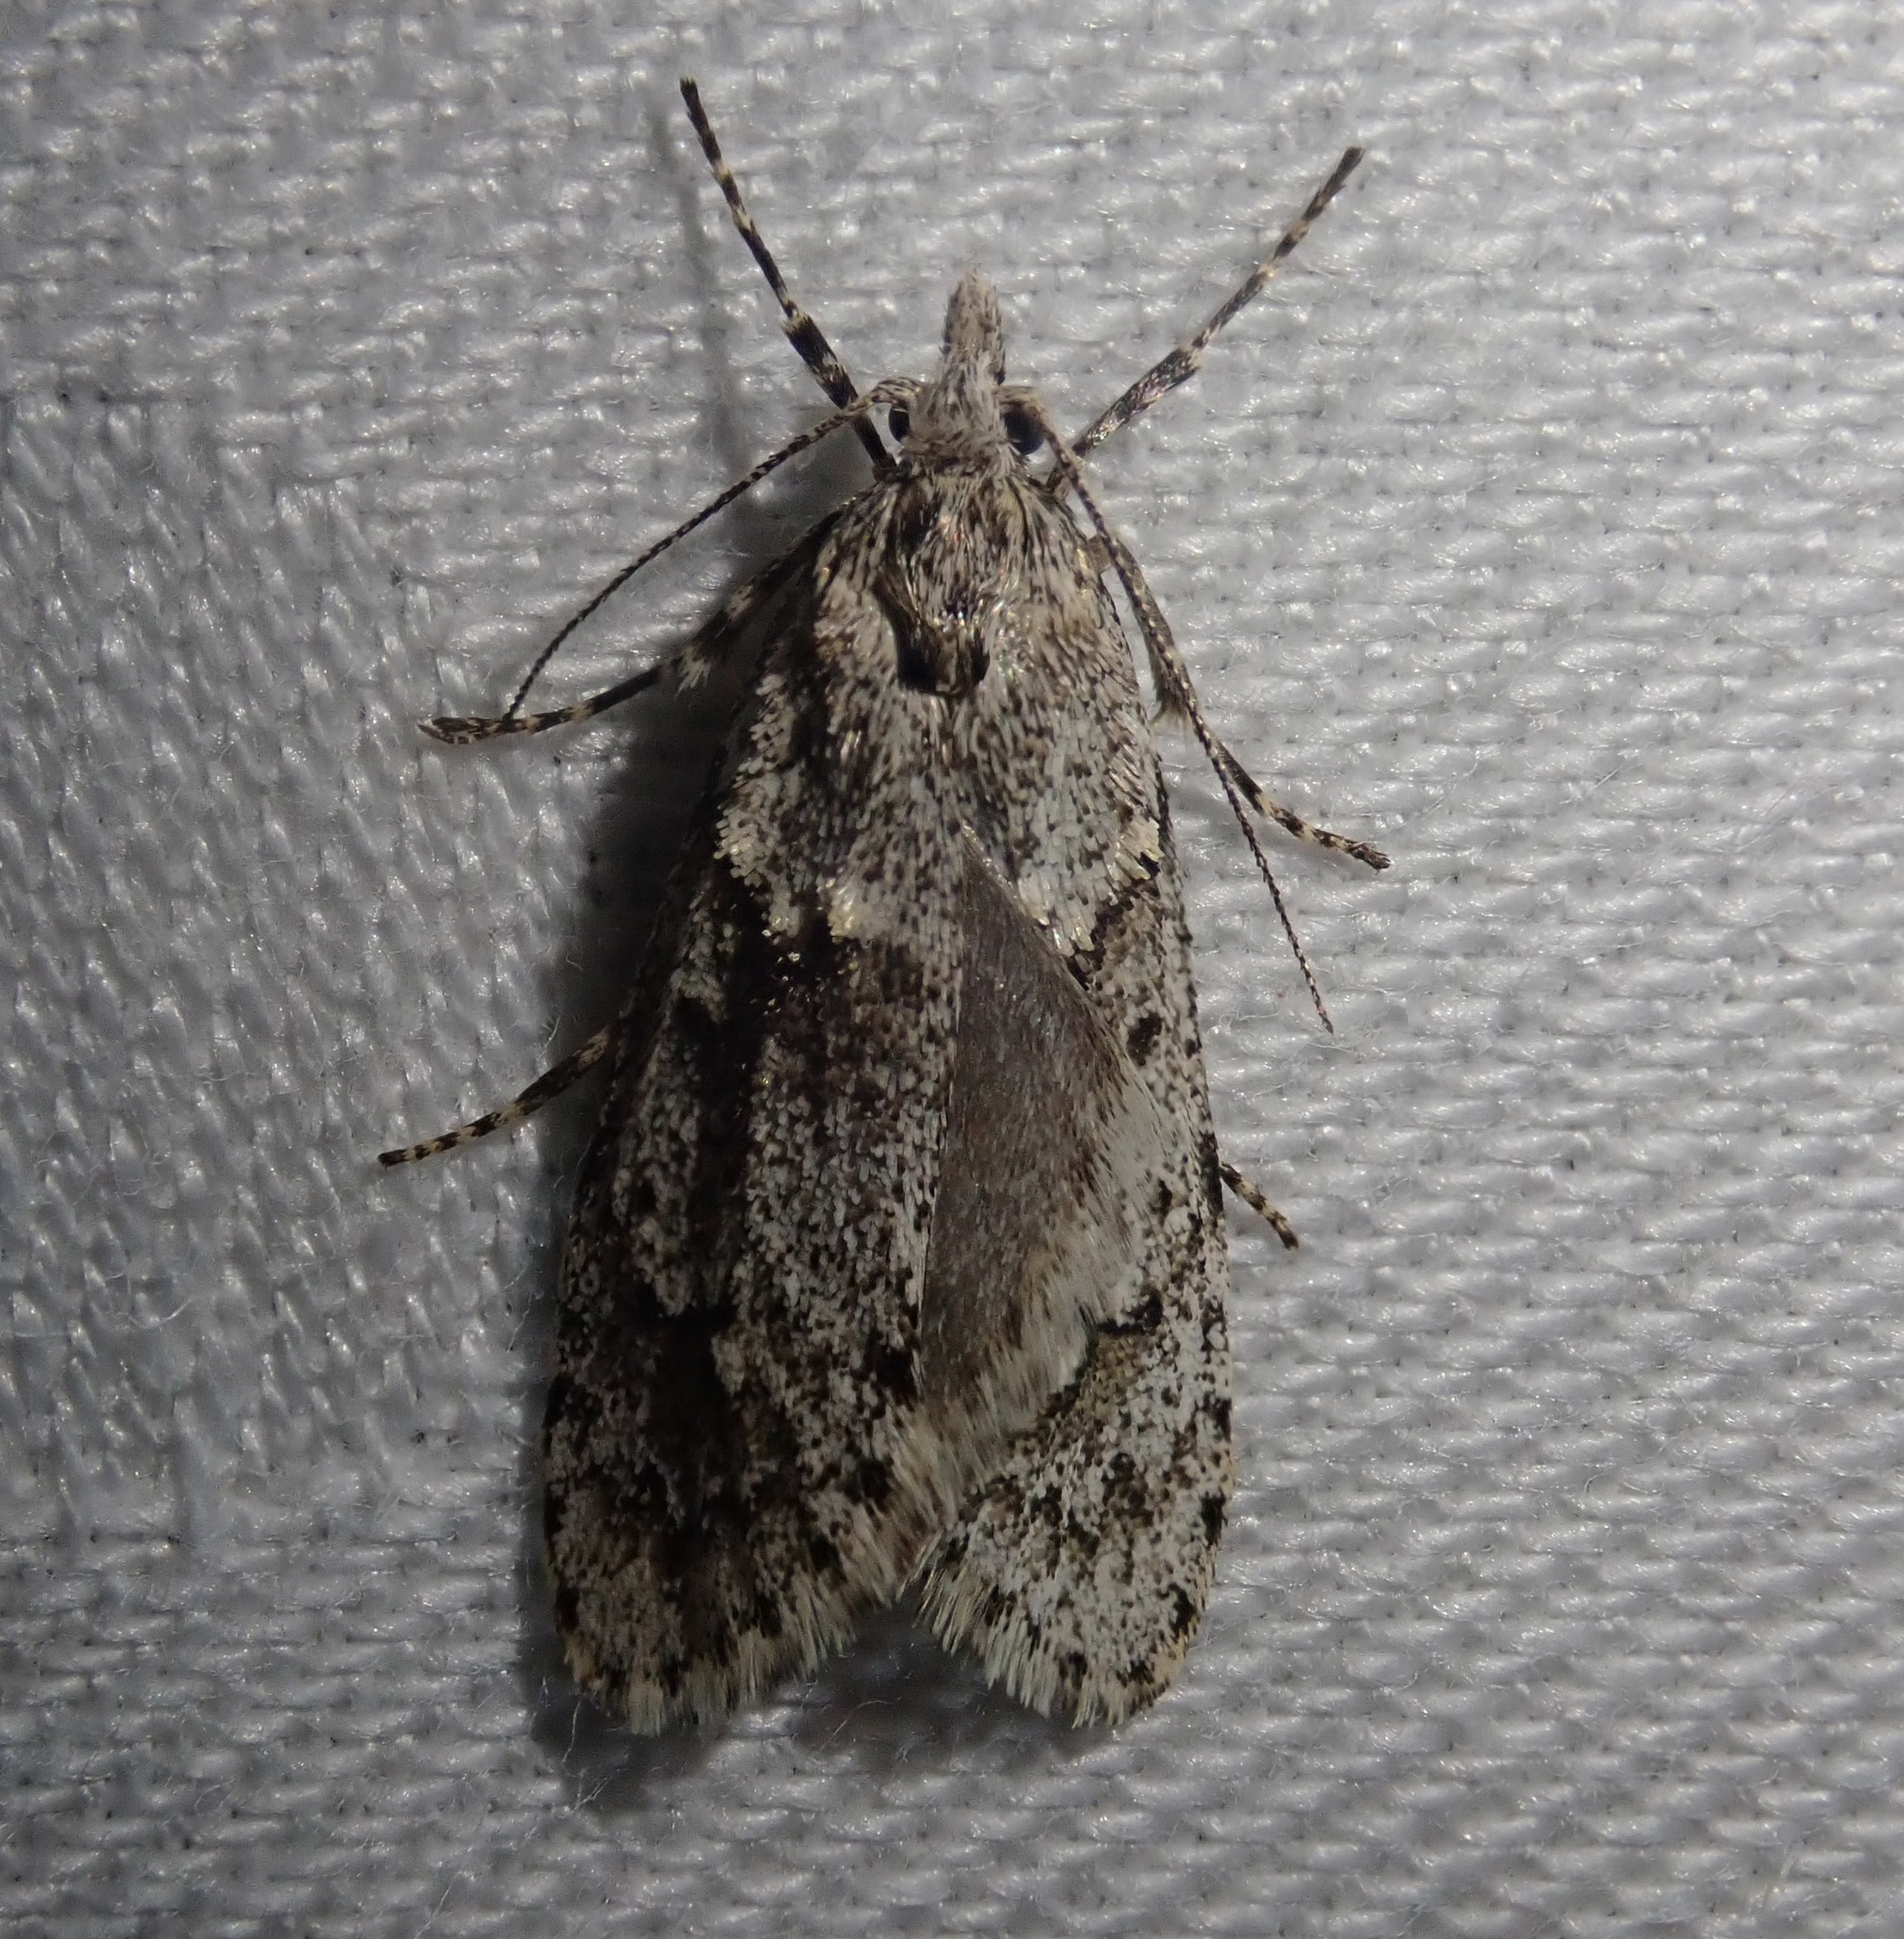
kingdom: Animalia
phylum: Arthropoda
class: Insecta
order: Lepidoptera
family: Lypusidae
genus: Diurnea
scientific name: Diurnea fagella
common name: March tubic
